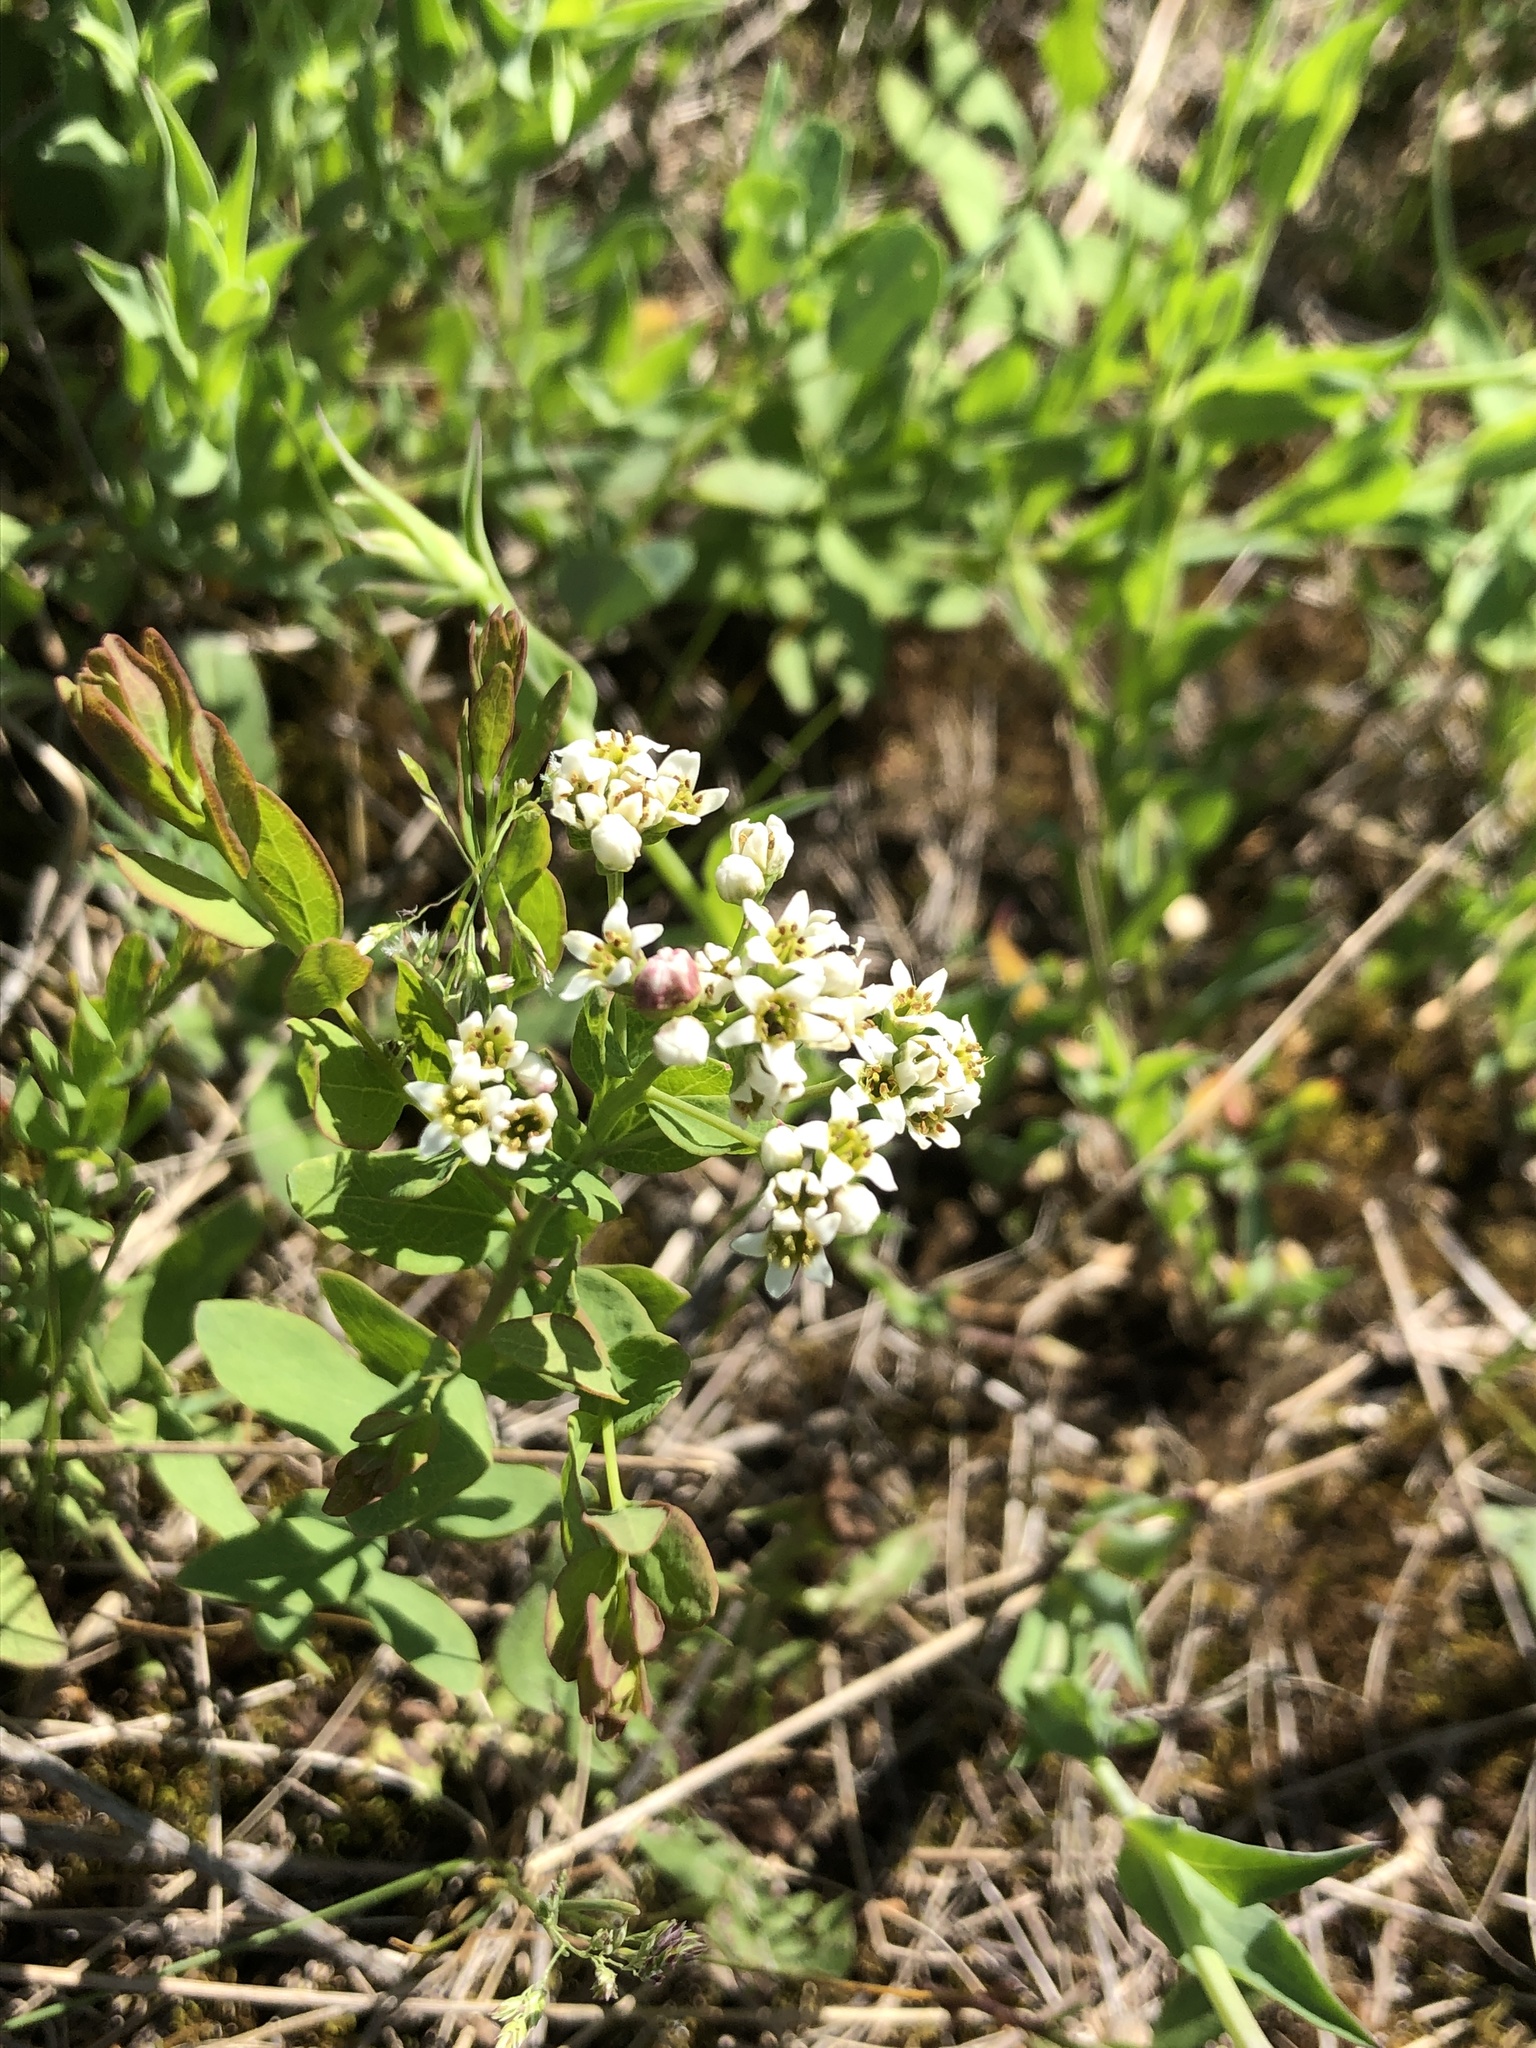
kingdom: Plantae
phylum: Tracheophyta
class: Magnoliopsida
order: Santalales
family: Comandraceae
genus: Comandra
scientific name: Comandra umbellata
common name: Bastard toadflax
